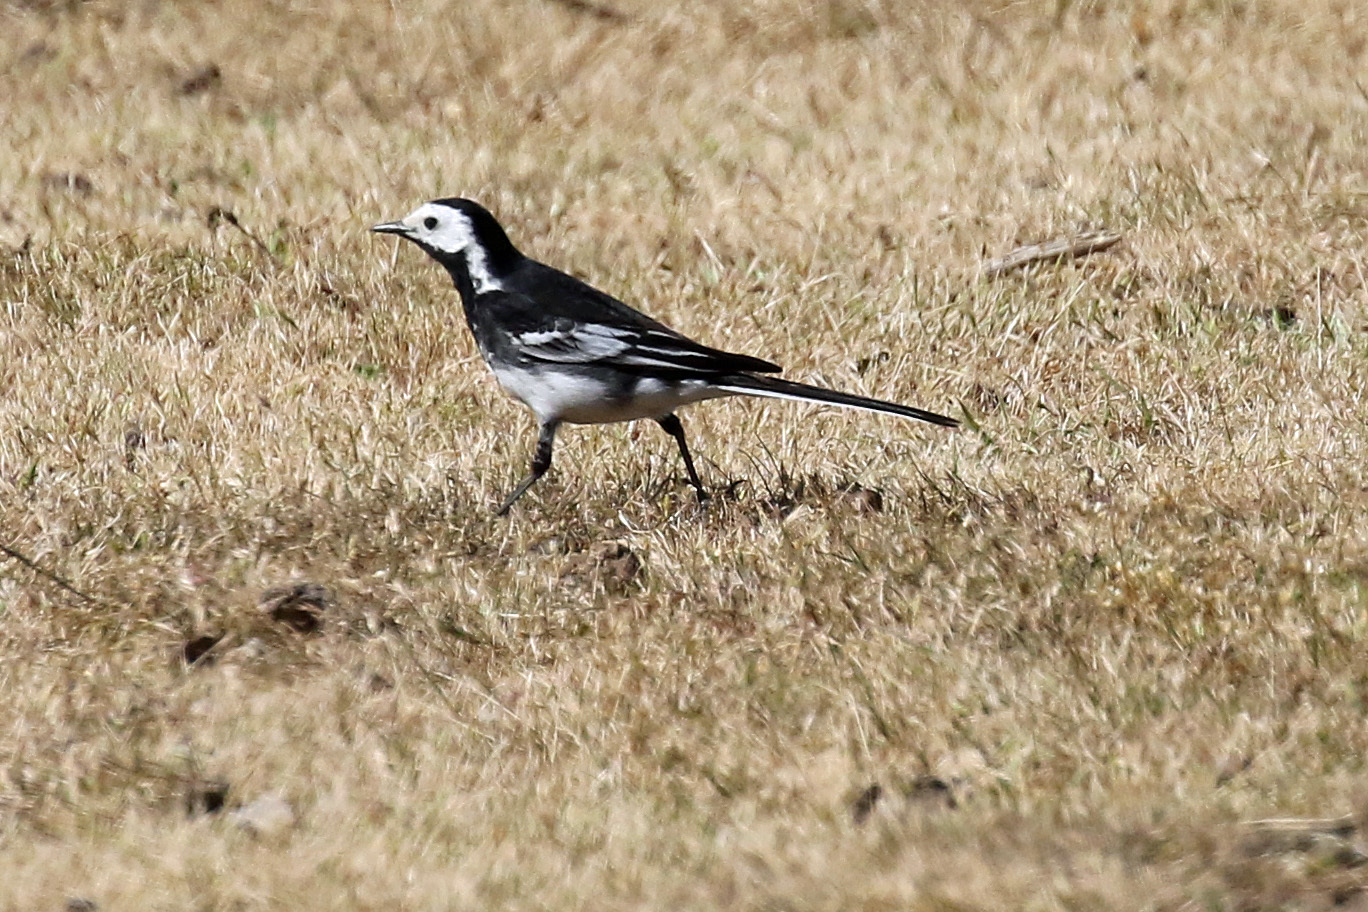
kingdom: Animalia
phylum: Chordata
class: Aves
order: Passeriformes
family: Motacillidae
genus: Motacilla
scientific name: Motacilla alba
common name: White wagtail
